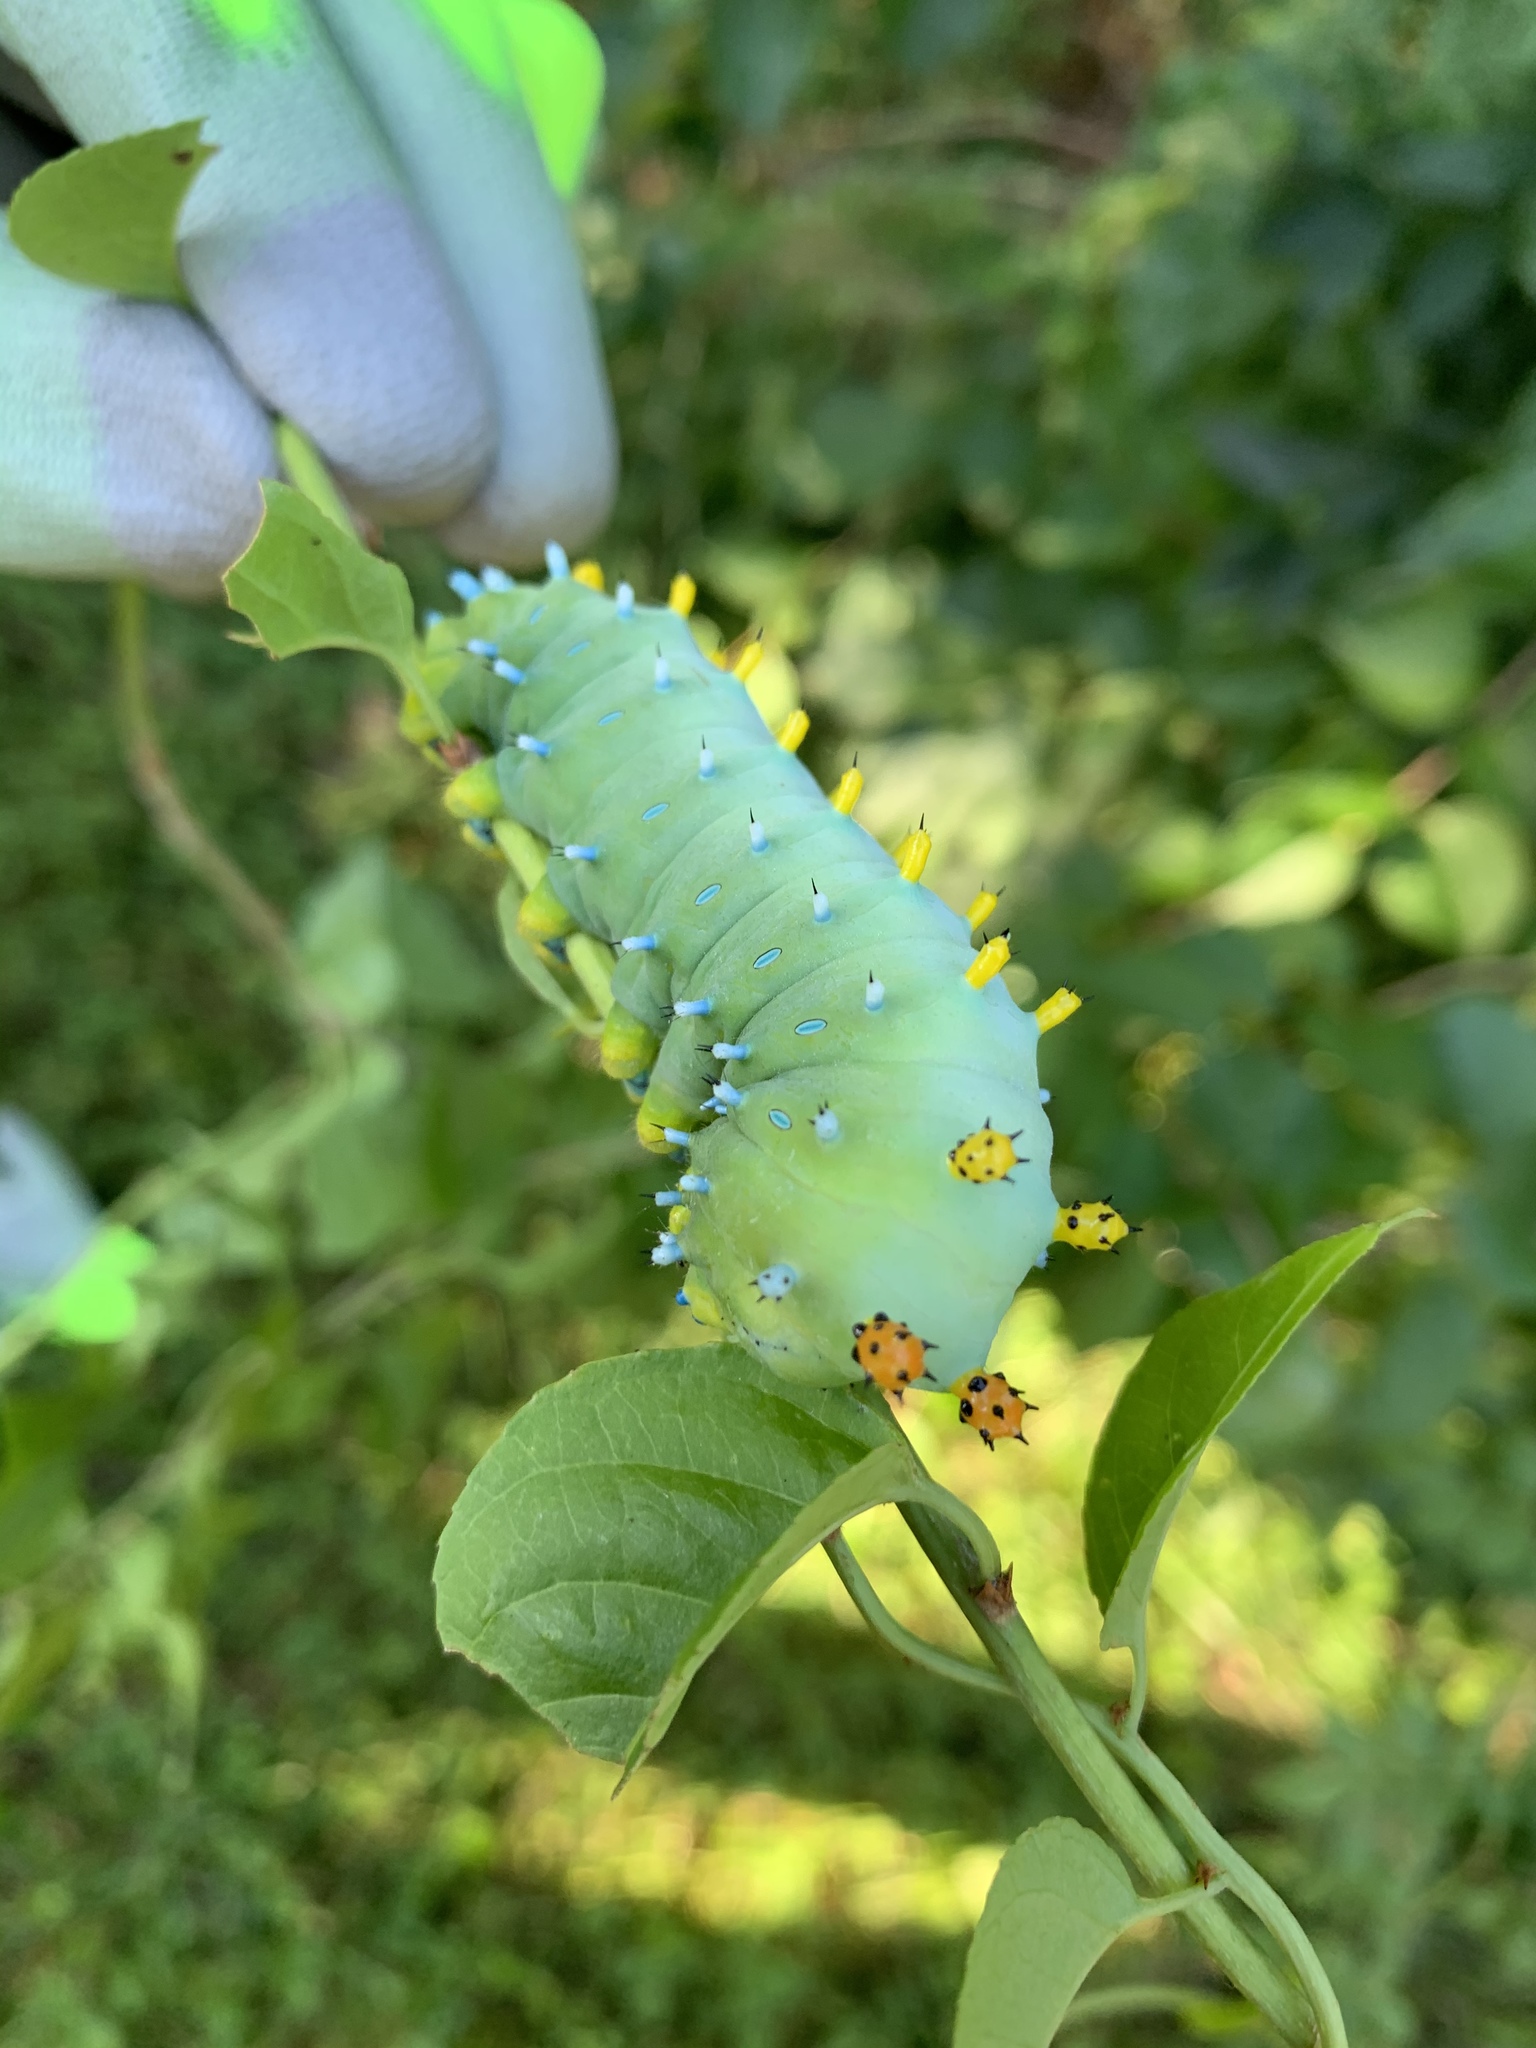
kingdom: Animalia
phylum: Arthropoda
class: Insecta
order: Lepidoptera
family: Saturniidae
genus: Hyalophora
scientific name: Hyalophora cecropia
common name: Cecropia silkmoth
